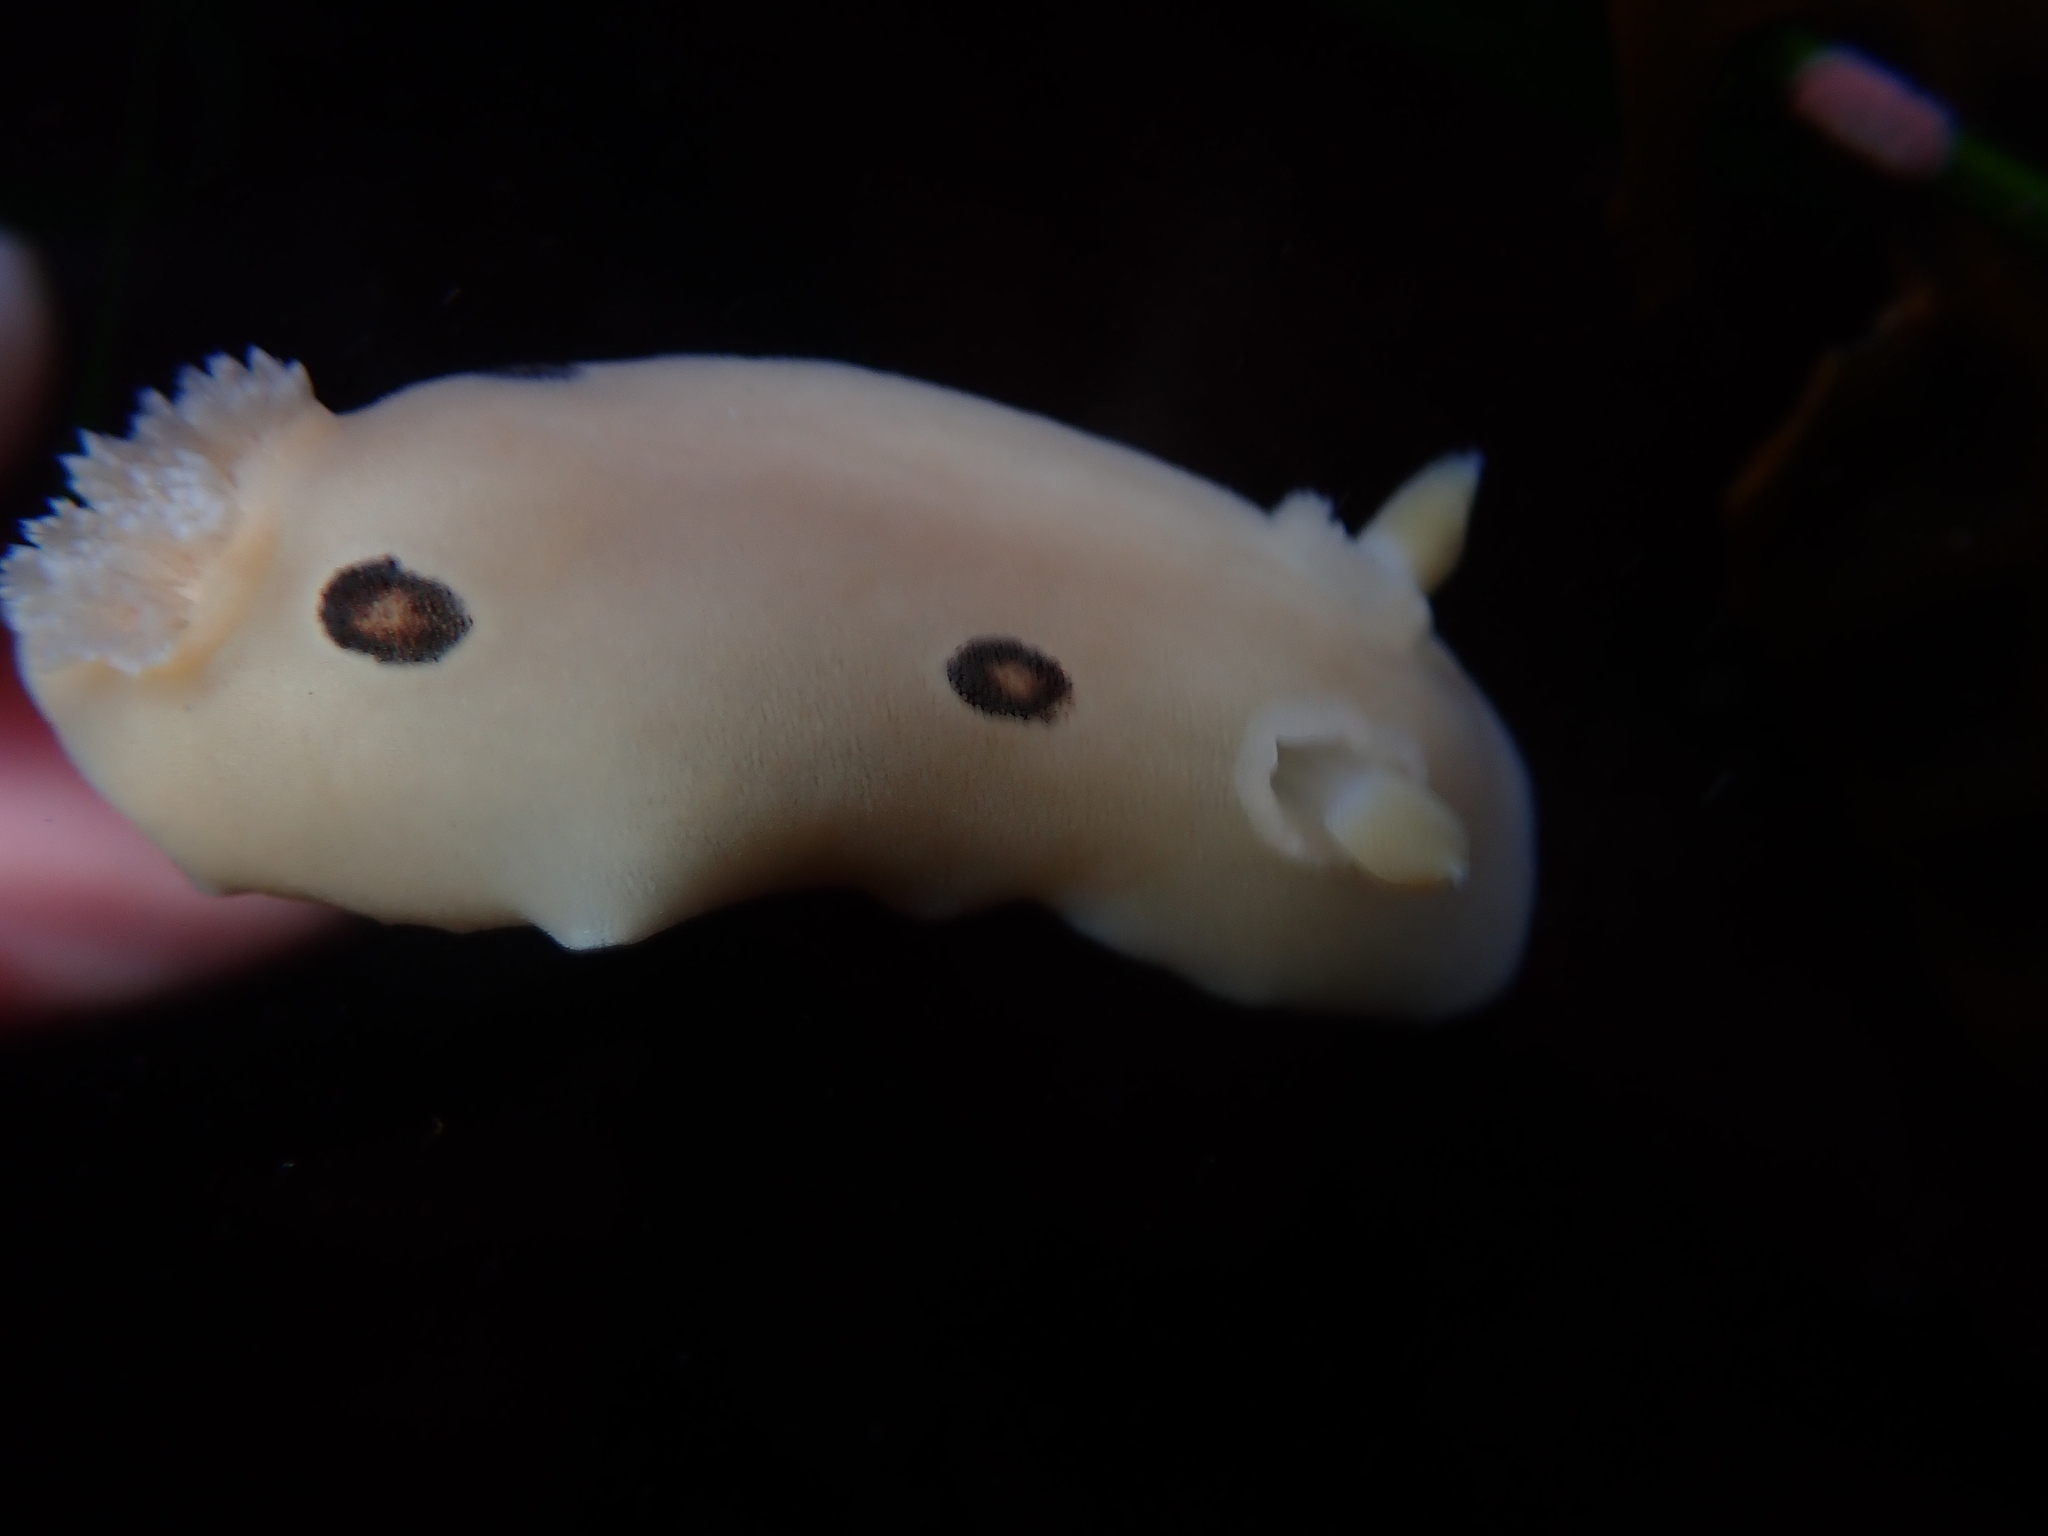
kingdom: Animalia
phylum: Mollusca
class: Gastropoda
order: Nudibranchia
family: Discodorididae
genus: Diaulula
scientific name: Diaulula sandiegensis
